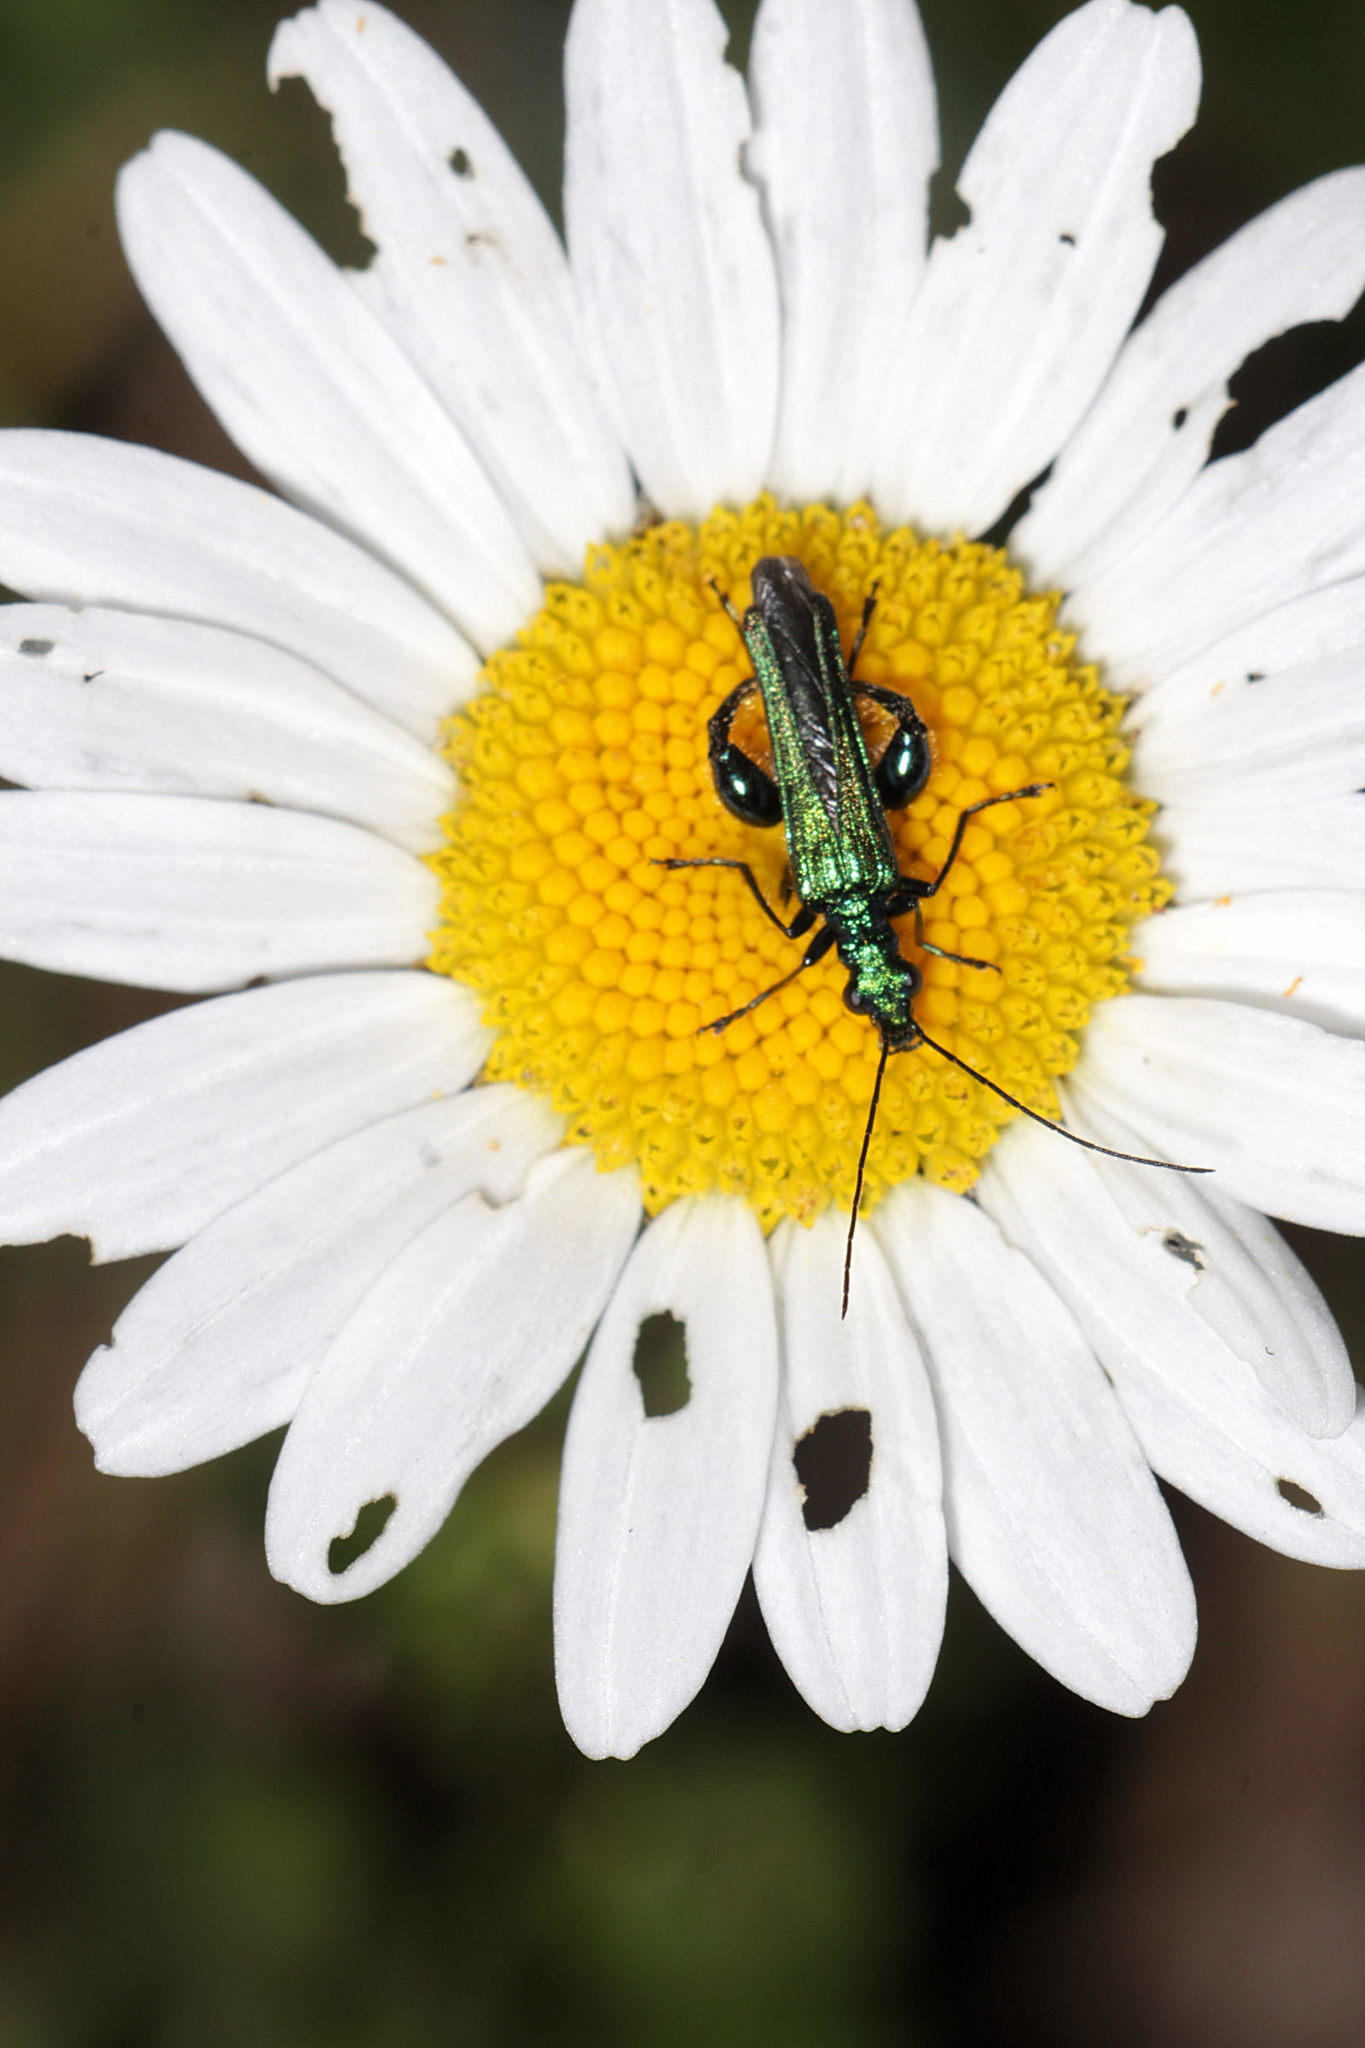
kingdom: Animalia
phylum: Arthropoda
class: Insecta
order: Coleoptera
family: Oedemeridae
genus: Oedemera
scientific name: Oedemera nobilis
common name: Swollen-thighed beetle
